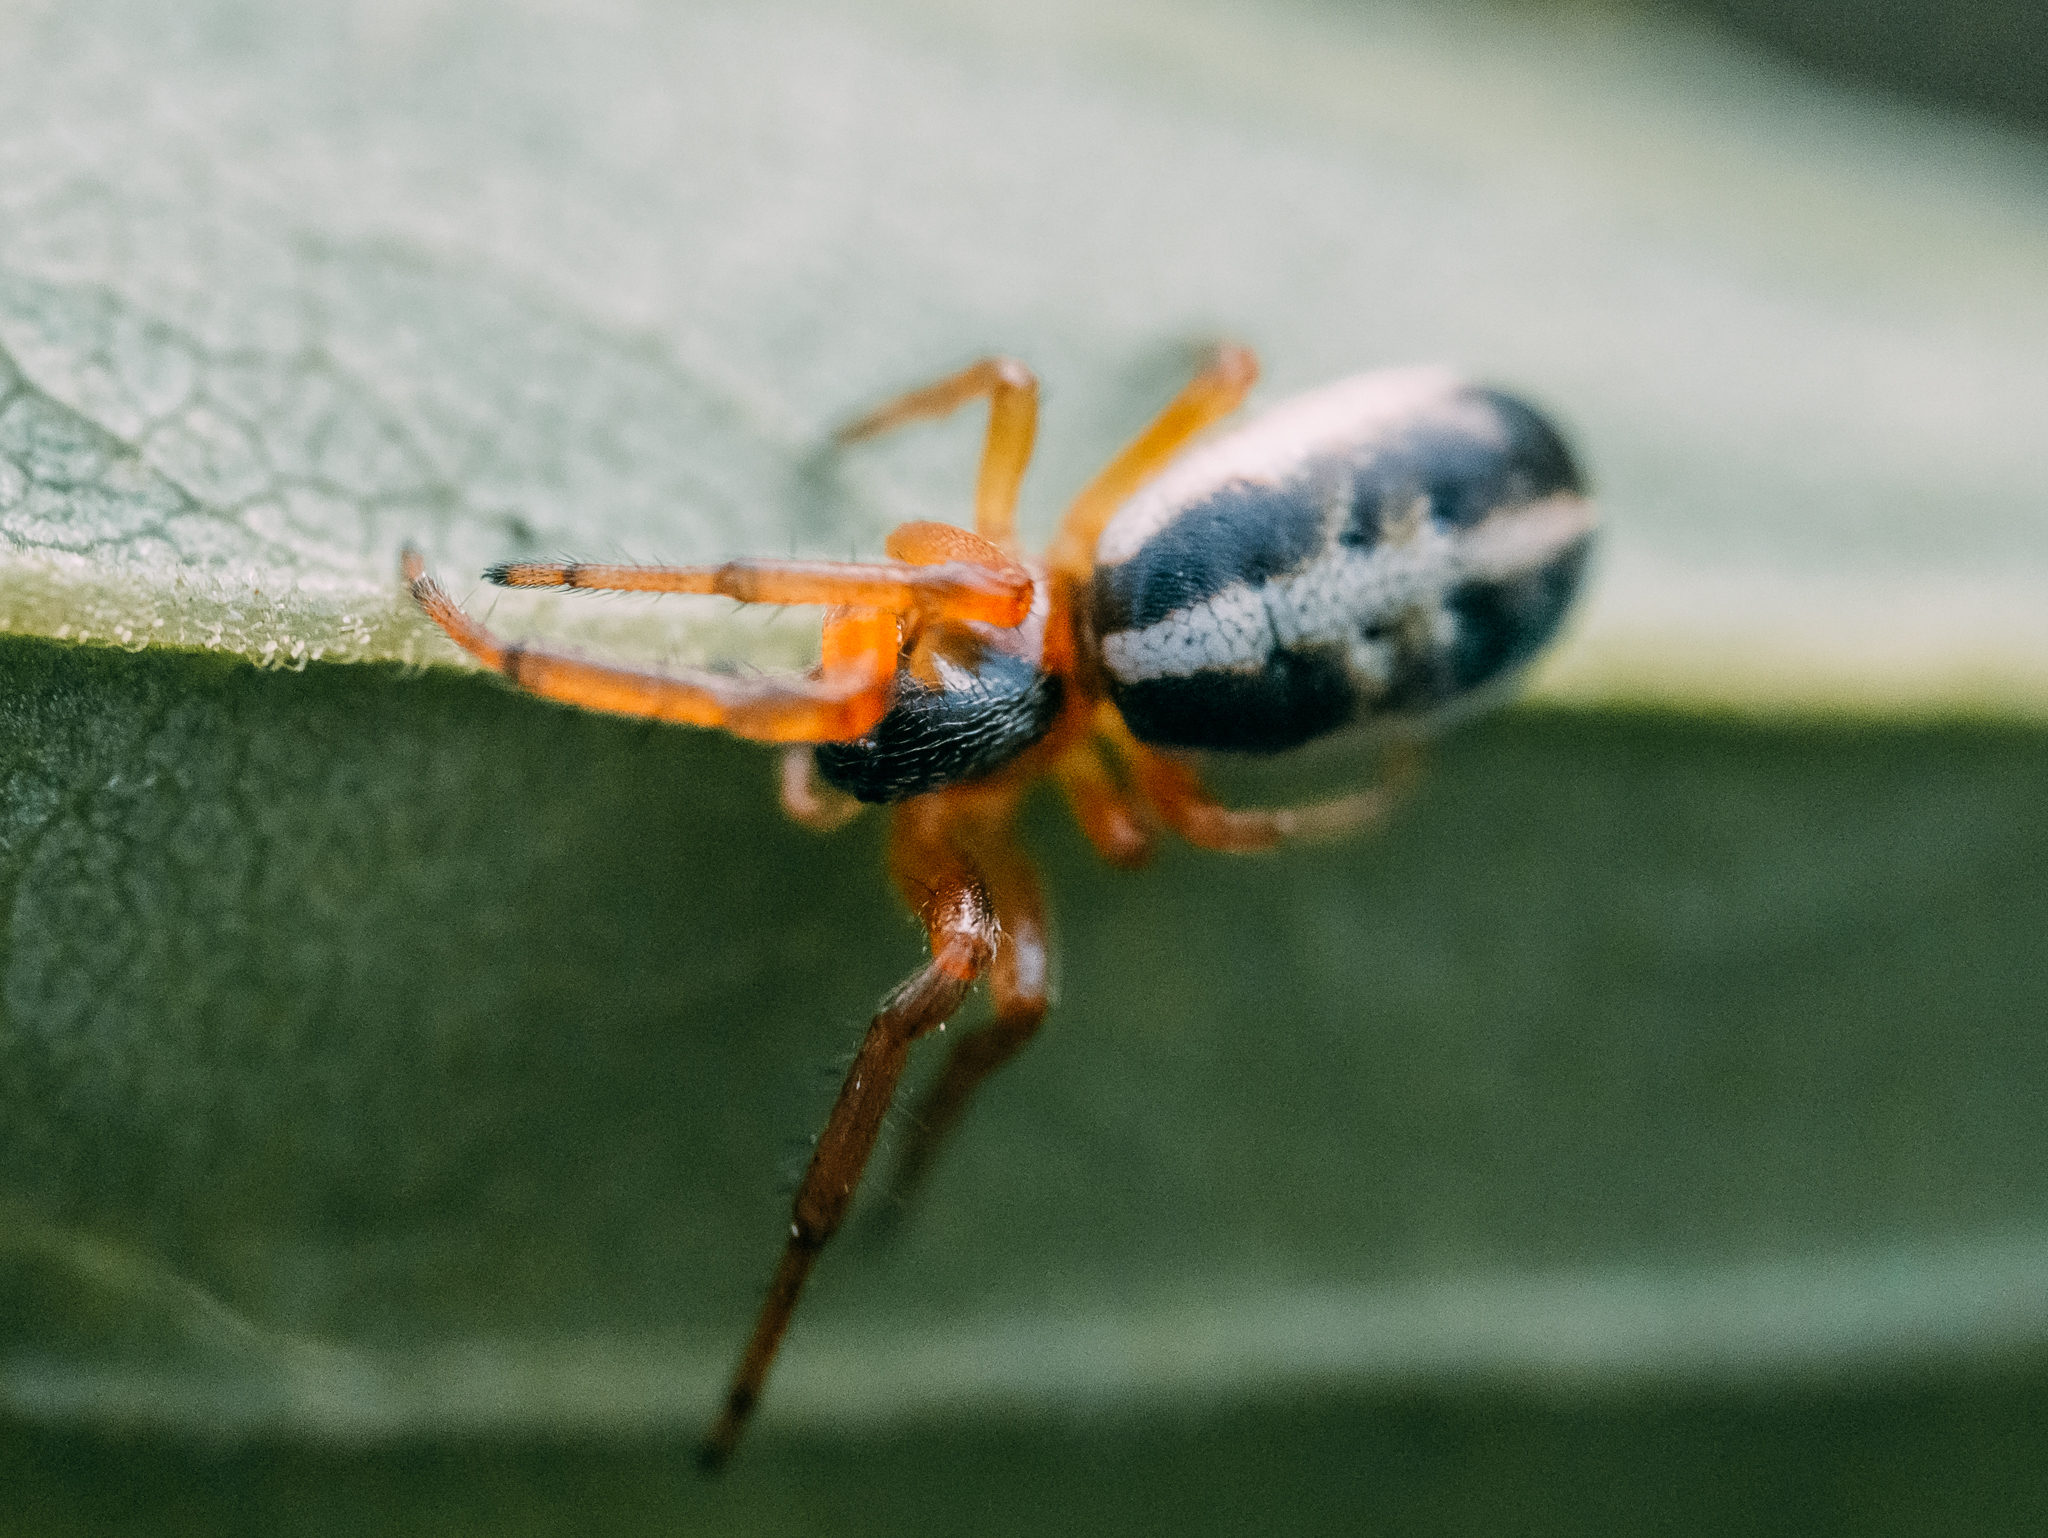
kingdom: Animalia
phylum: Arthropoda
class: Arachnida
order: Araneae
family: Araneidae
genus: Singa
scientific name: Singa nitidula
